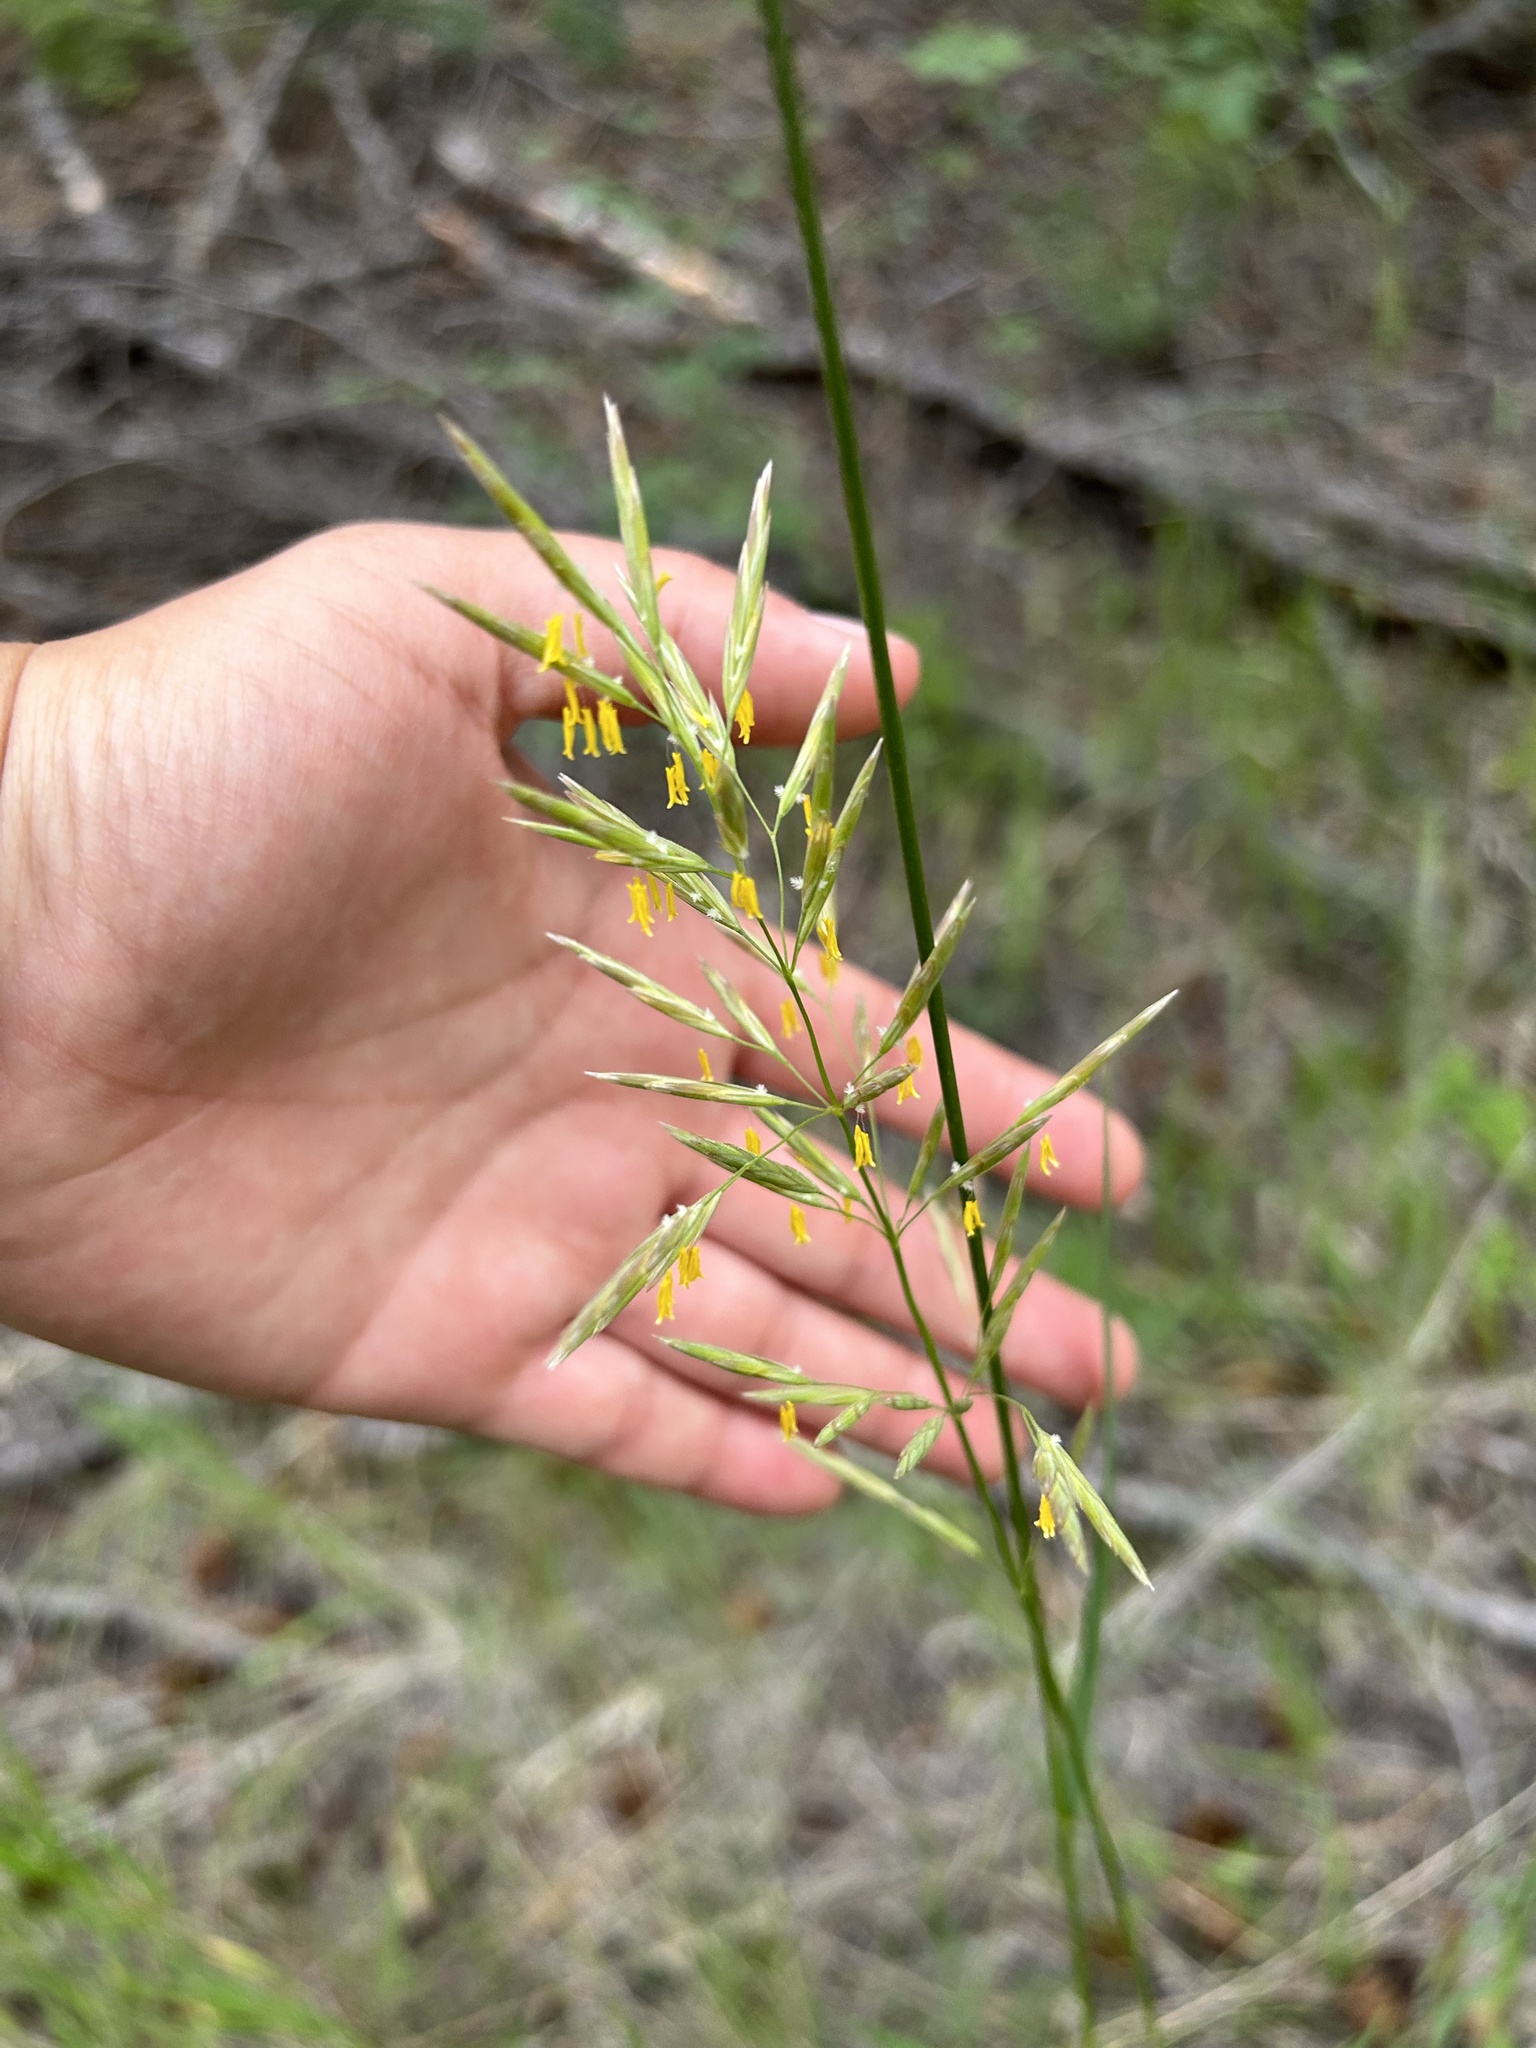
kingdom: Plantae
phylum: Tracheophyta
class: Liliopsida
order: Poales
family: Poaceae
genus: Bromus
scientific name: Bromus inermis
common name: Smooth brome
